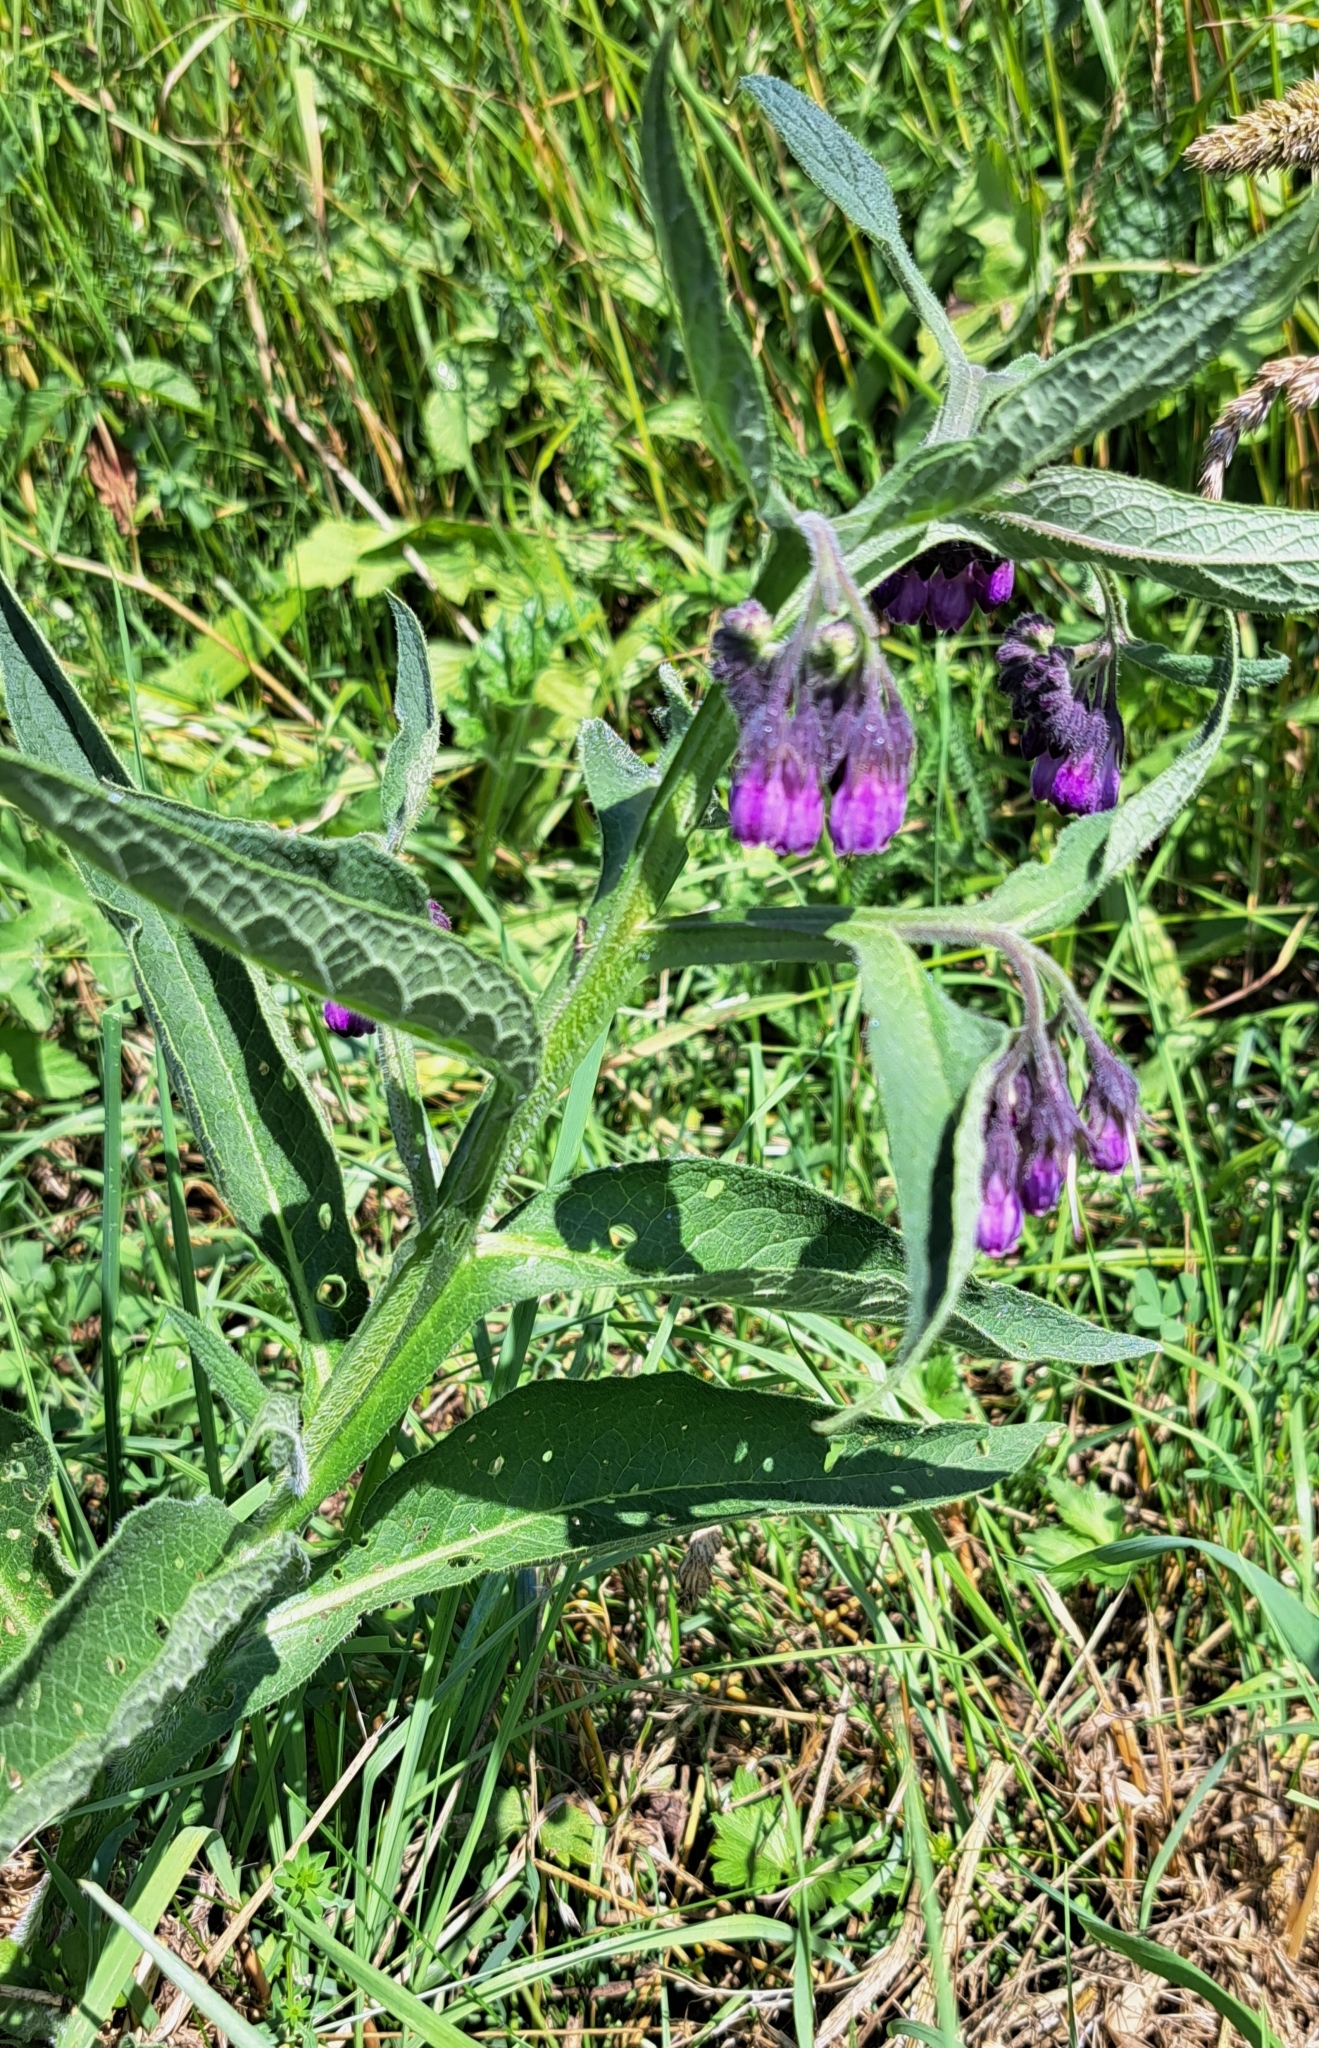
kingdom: Plantae
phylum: Tracheophyta
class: Magnoliopsida
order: Boraginales
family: Boraginaceae
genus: Symphytum
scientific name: Symphytum officinale
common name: Common comfrey
